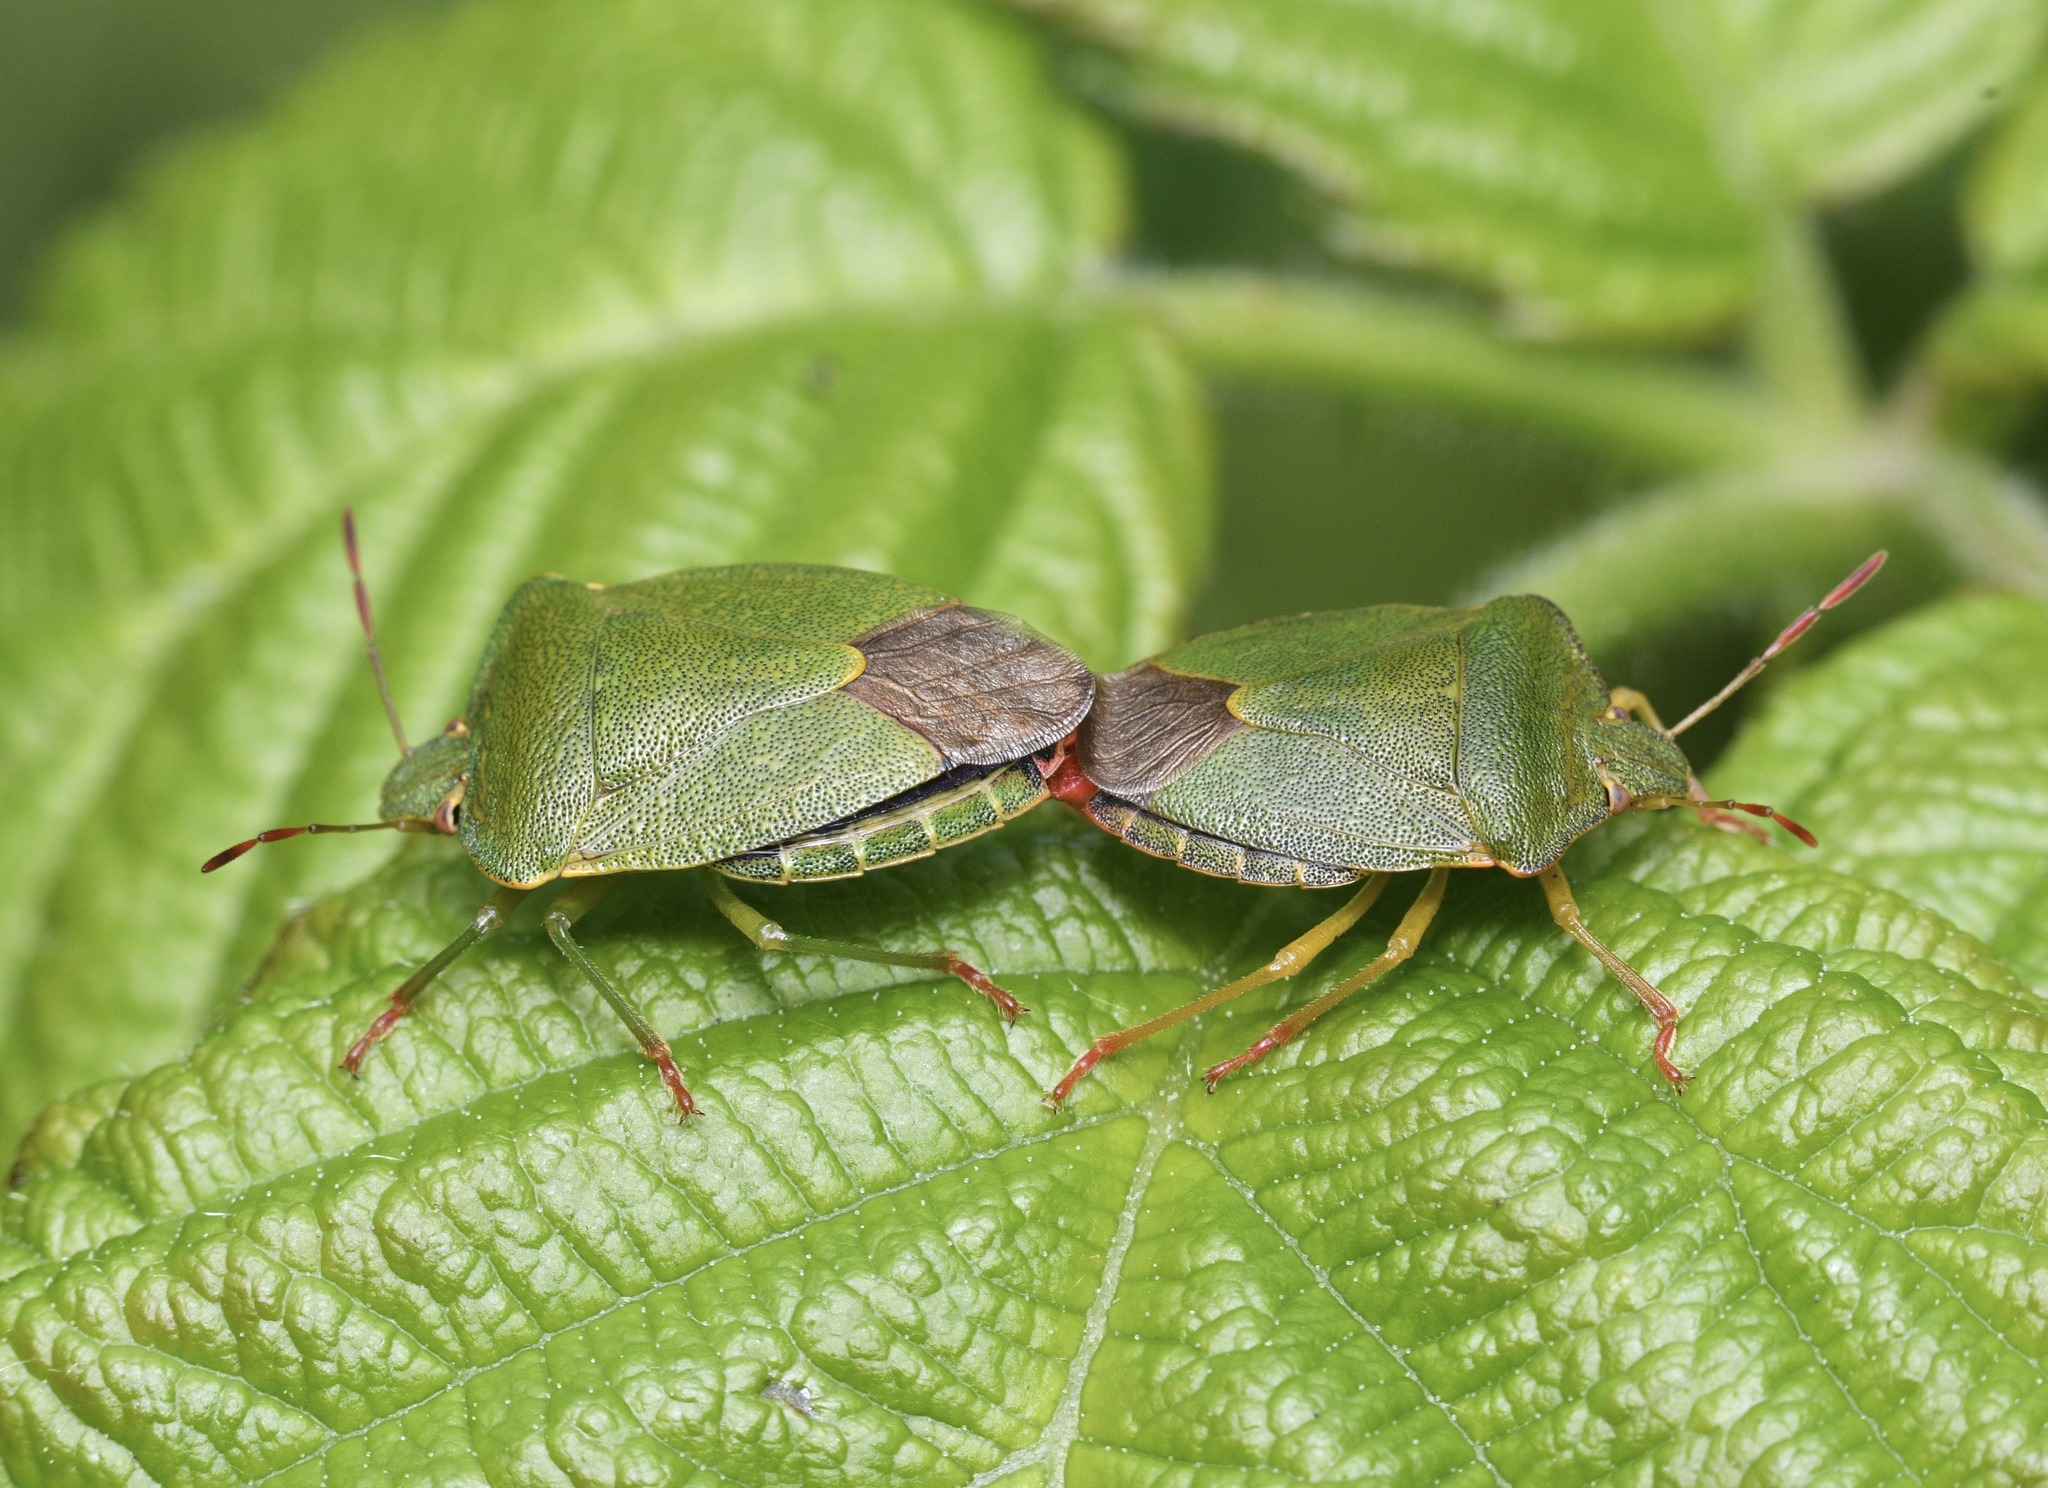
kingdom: Animalia
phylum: Arthropoda
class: Insecta
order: Hemiptera
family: Pentatomidae
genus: Palomena
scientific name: Palomena prasina
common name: Green shieldbug
